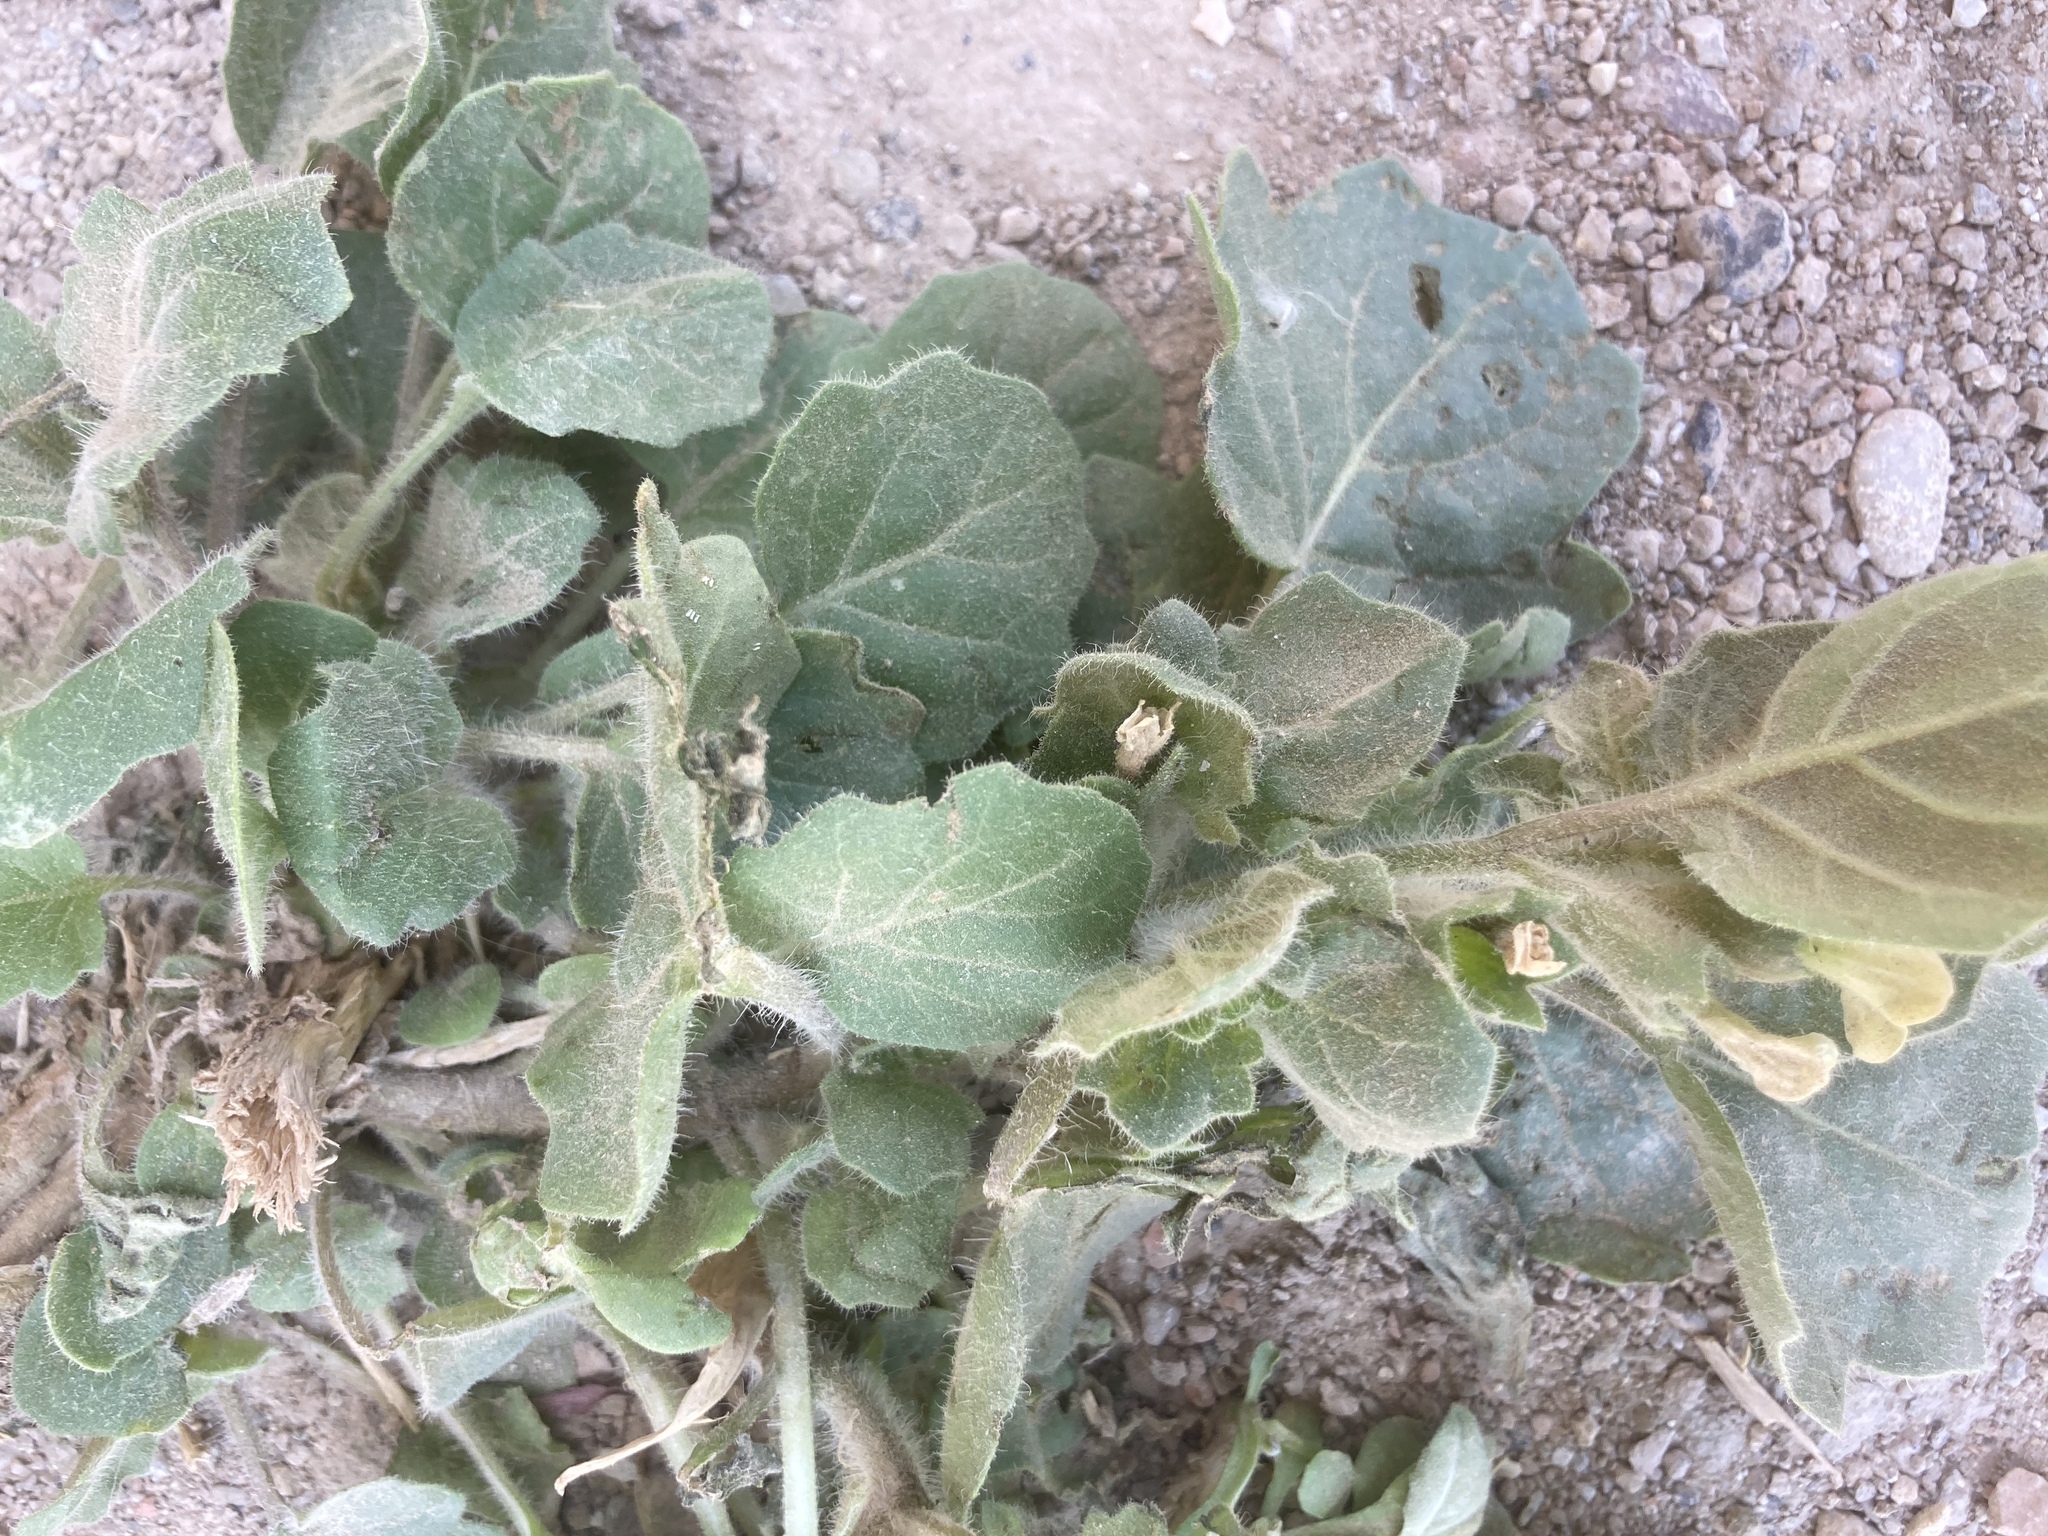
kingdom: Plantae
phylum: Tracheophyta
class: Magnoliopsida
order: Solanales
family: Solanaceae
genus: Hyoscyamus
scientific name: Hyoscyamus albus
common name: White henbane
